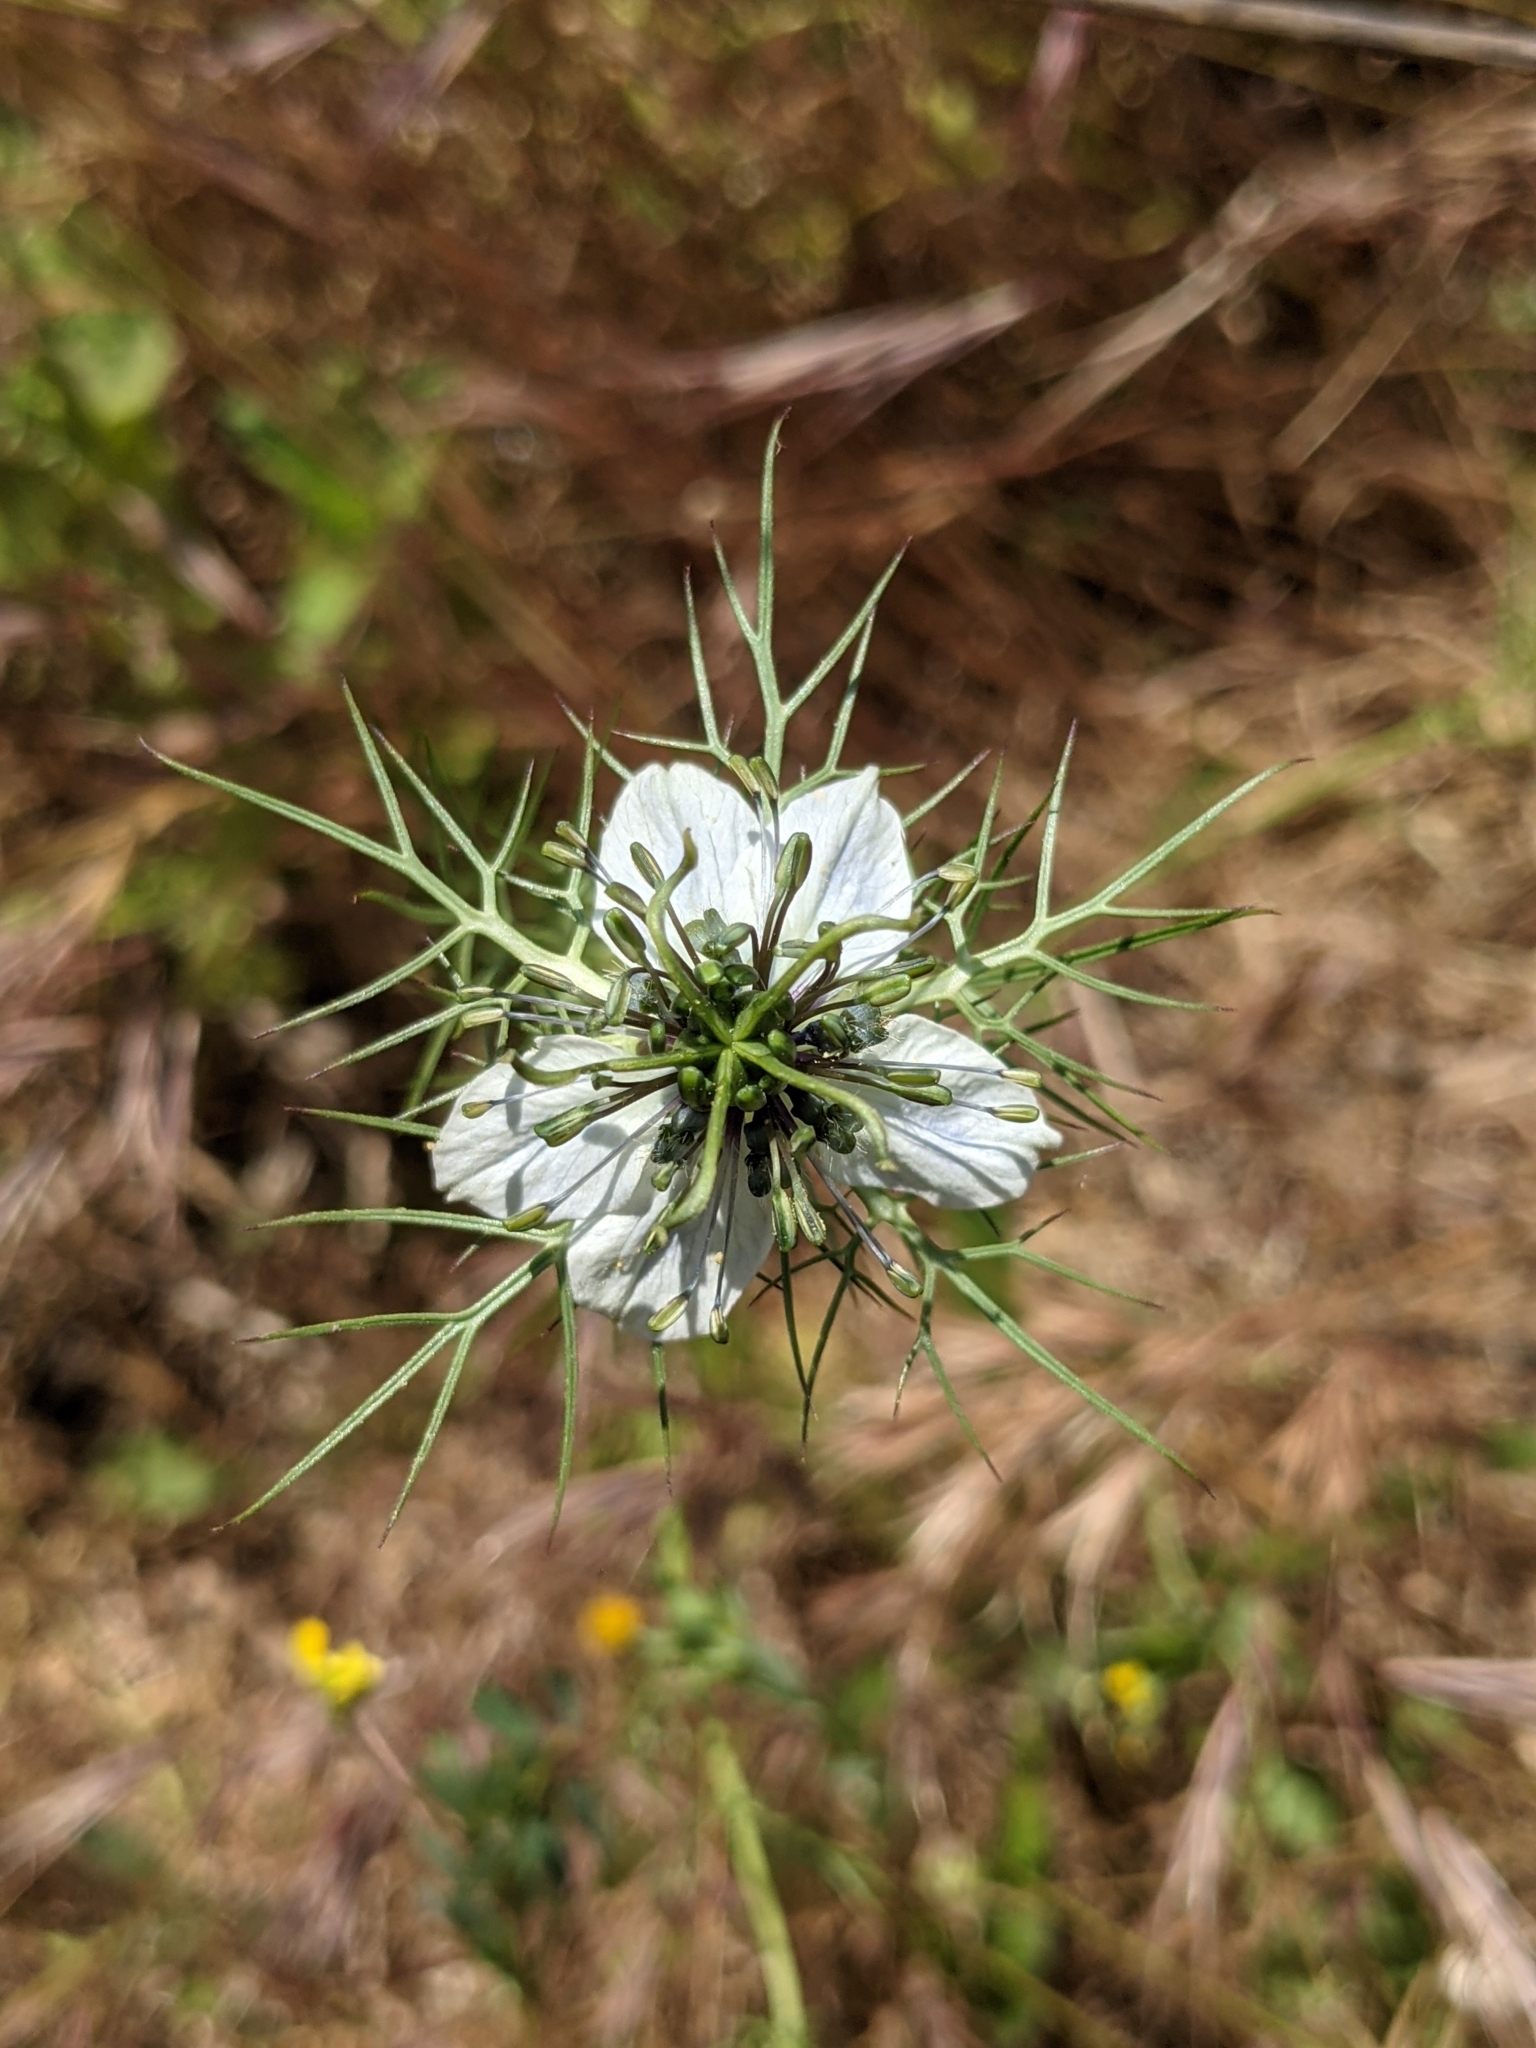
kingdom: Plantae
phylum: Tracheophyta
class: Magnoliopsida
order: Ranunculales
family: Ranunculaceae
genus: Nigella
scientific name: Nigella damascena
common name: Love-in-a-mist
